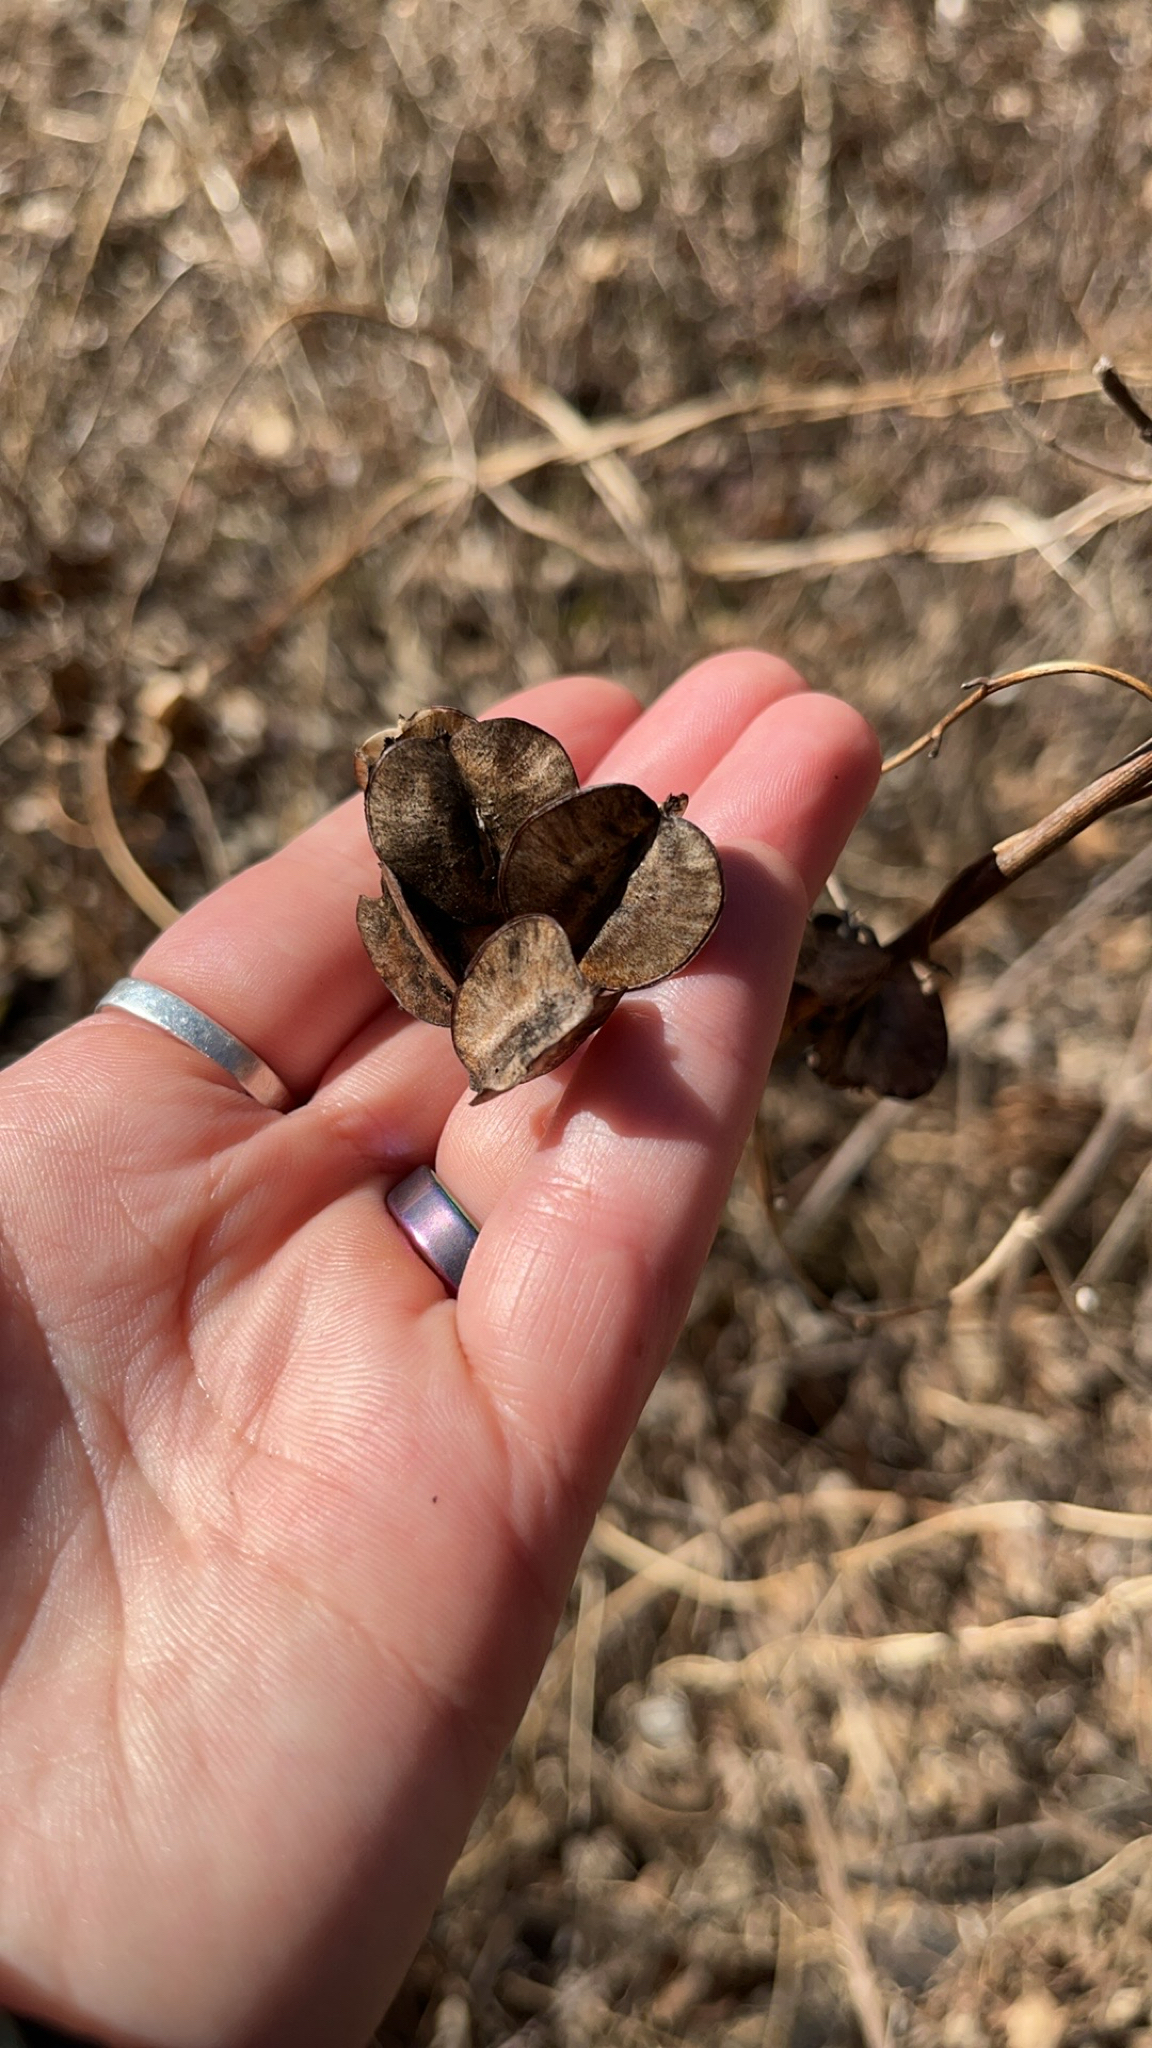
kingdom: Plantae
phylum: Tracheophyta
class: Liliopsida
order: Dioscoreales
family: Dioscoreaceae
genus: Dioscorea
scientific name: Dioscorea villosa
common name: Wild yam
